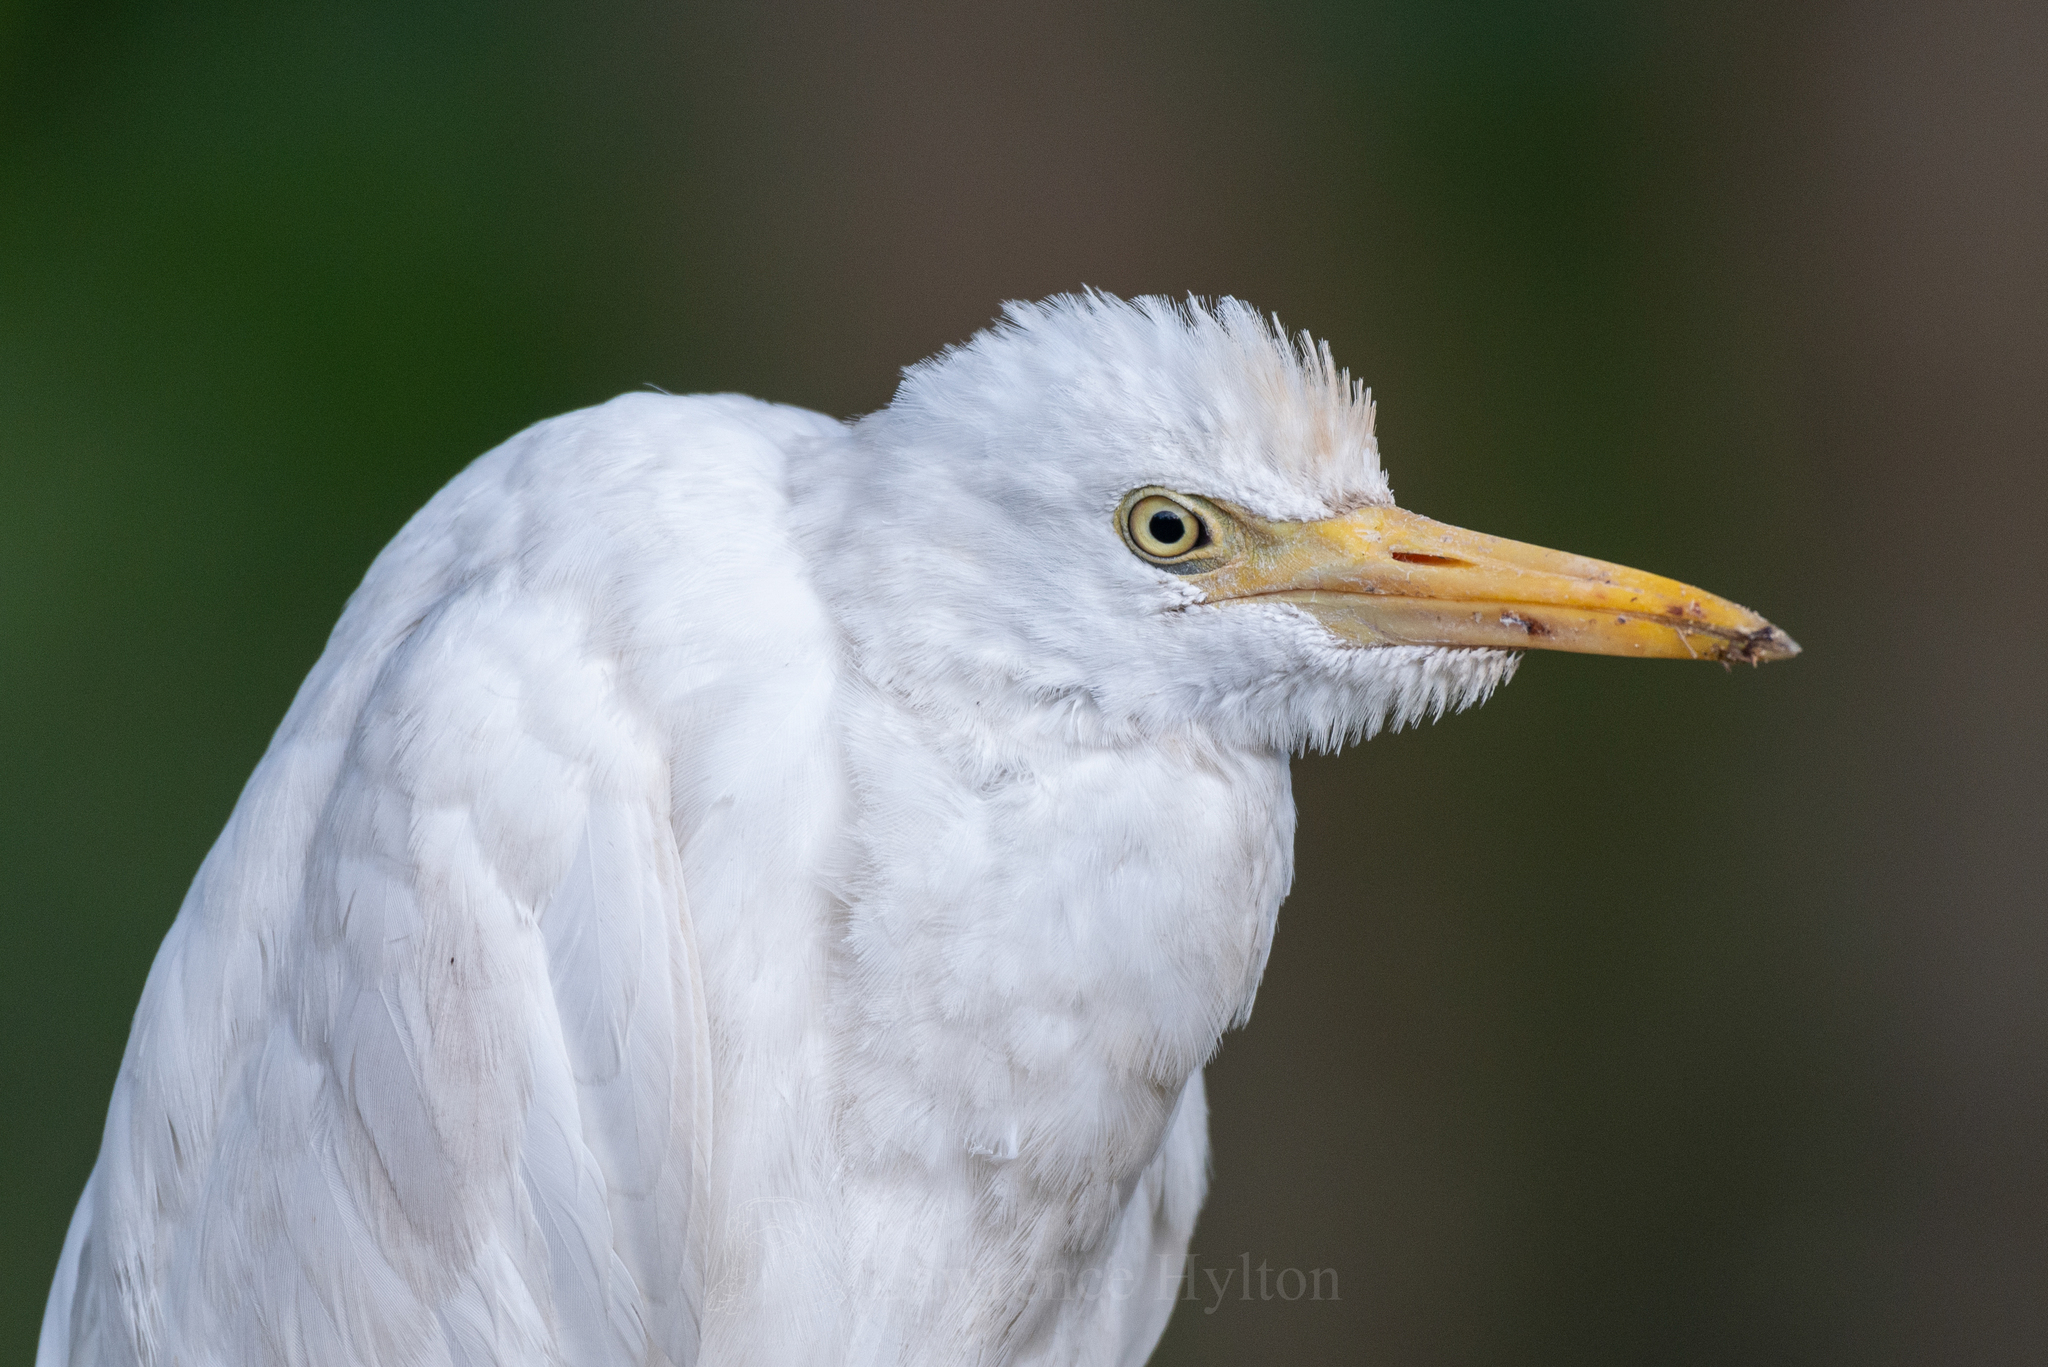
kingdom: Animalia
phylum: Chordata
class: Aves
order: Pelecaniformes
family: Ardeidae
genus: Bubulcus
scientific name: Bubulcus coromandus
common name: Eastern cattle egret
